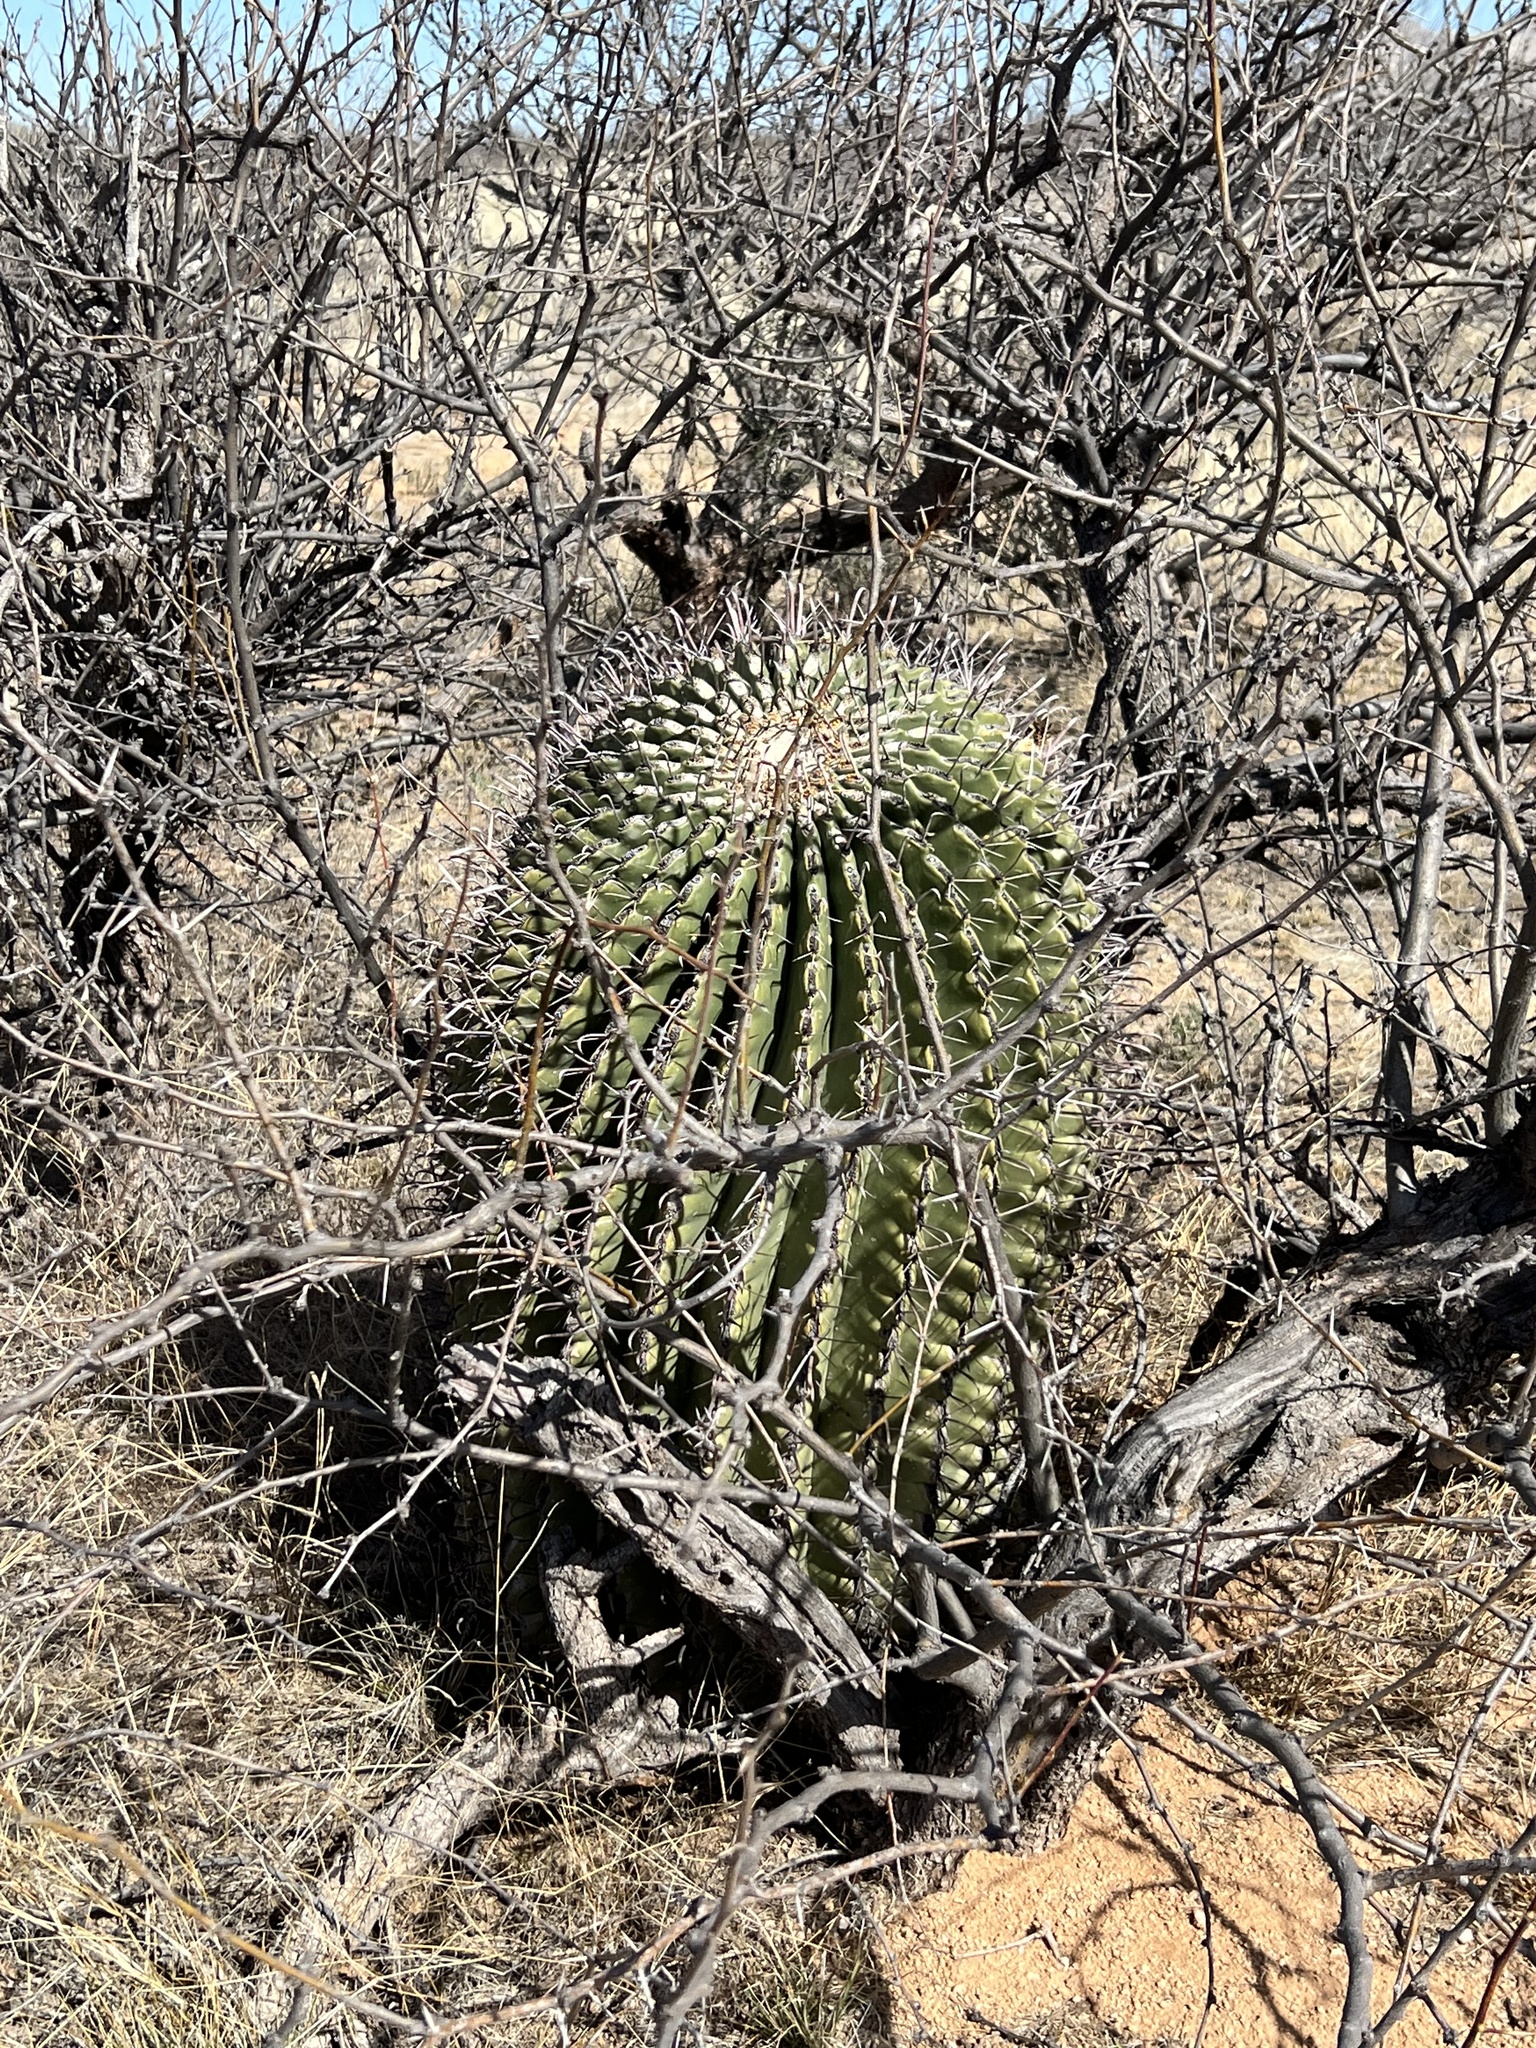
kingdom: Plantae
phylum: Tracheophyta
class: Magnoliopsida
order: Caryophyllales
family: Cactaceae
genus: Ferocactus
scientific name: Ferocactus wislizeni
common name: Candy barrel cactus
